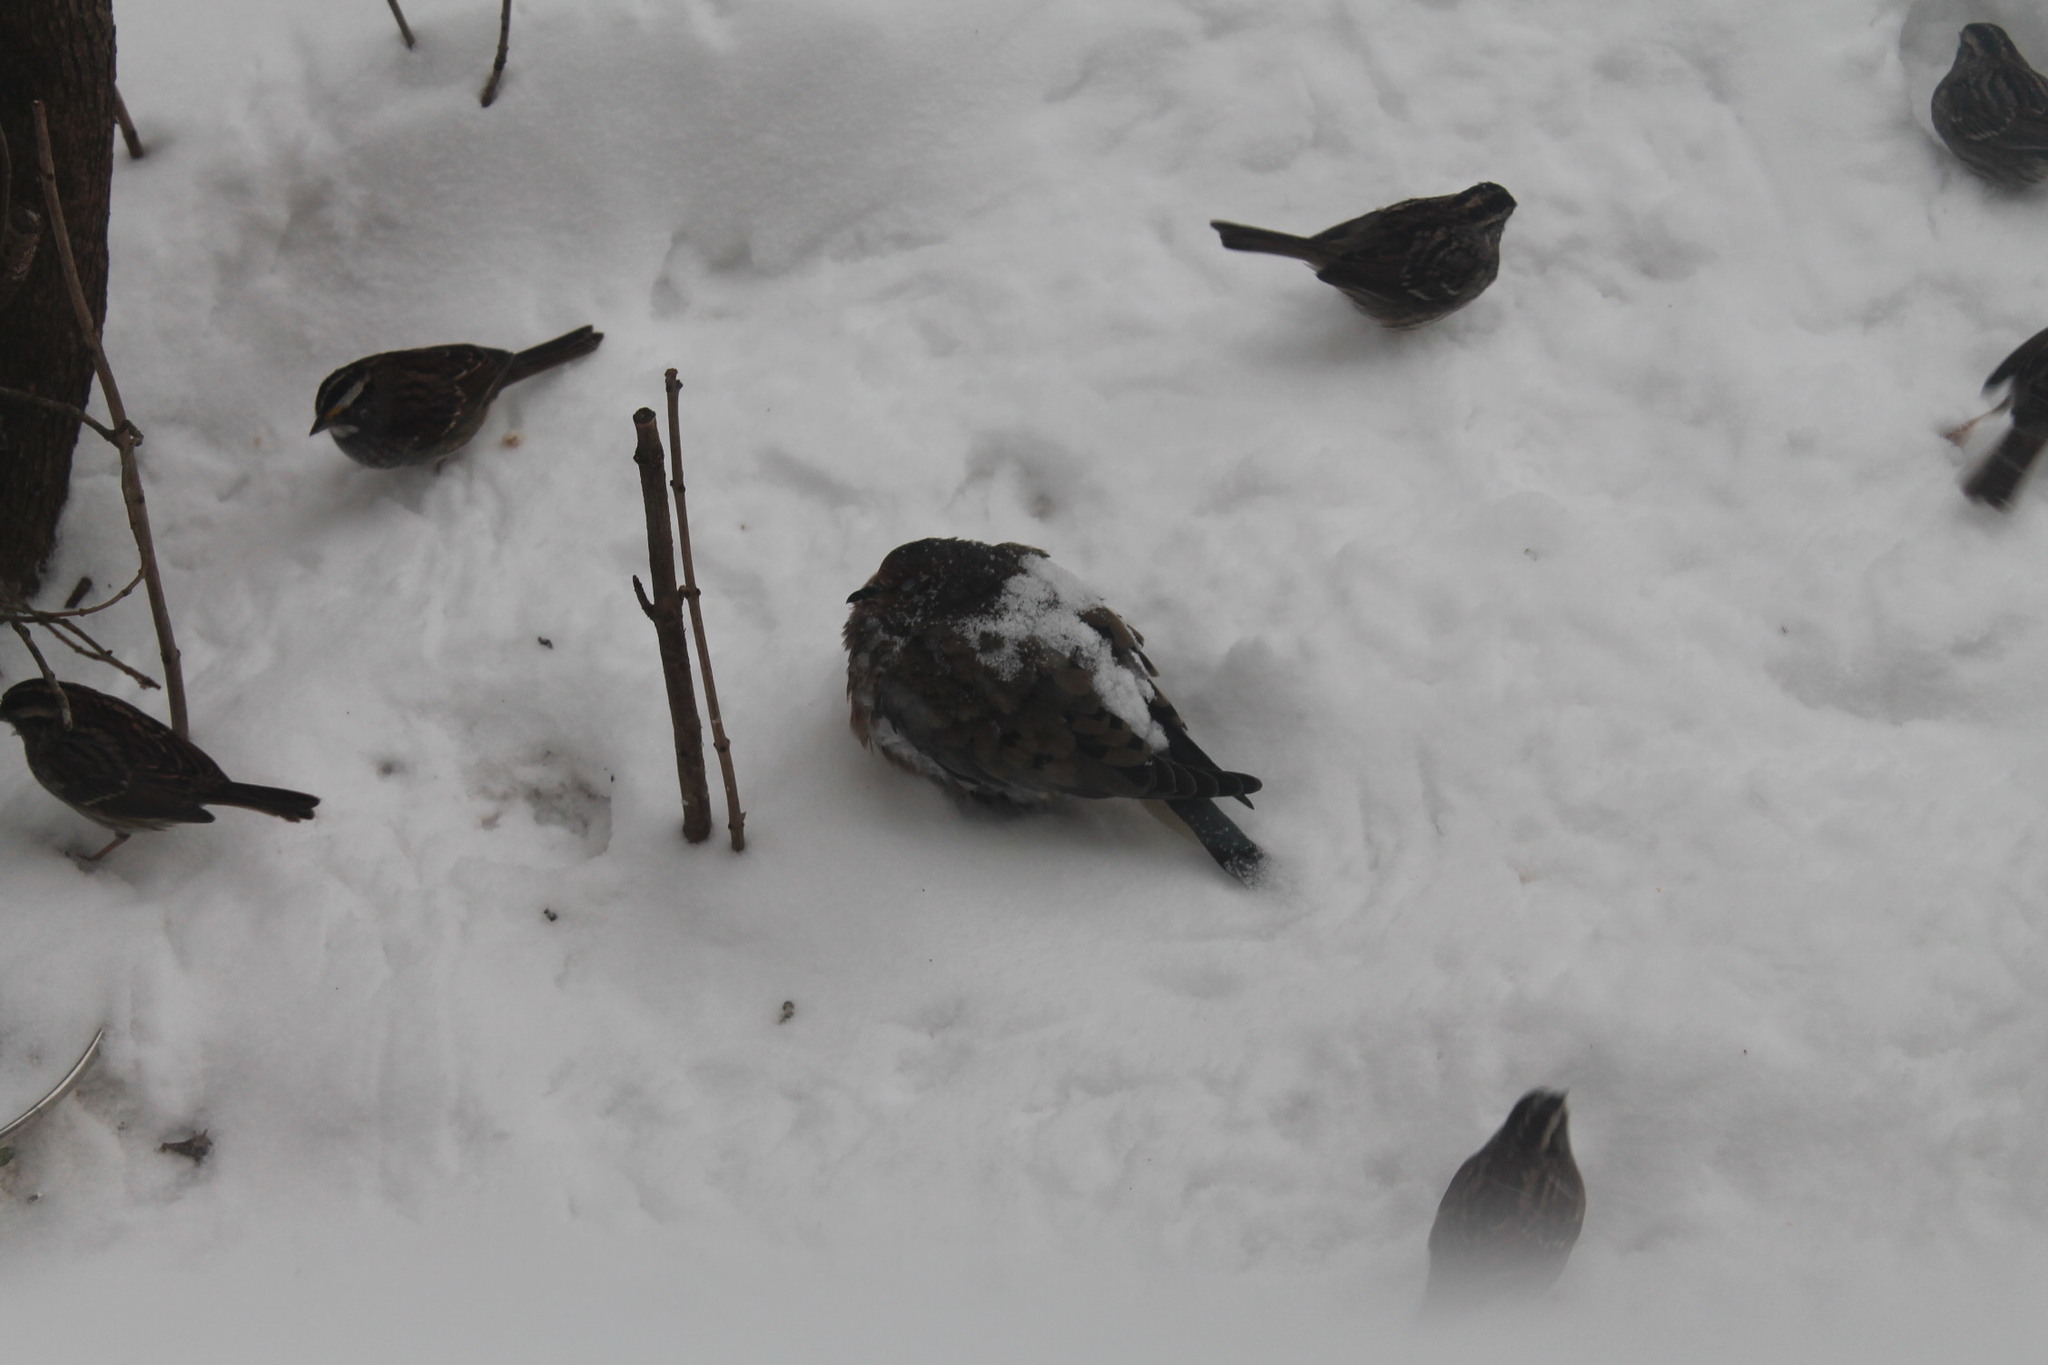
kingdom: Animalia
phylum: Chordata
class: Aves
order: Columbiformes
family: Columbidae
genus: Zenaida
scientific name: Zenaida macroura
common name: Mourning dove
